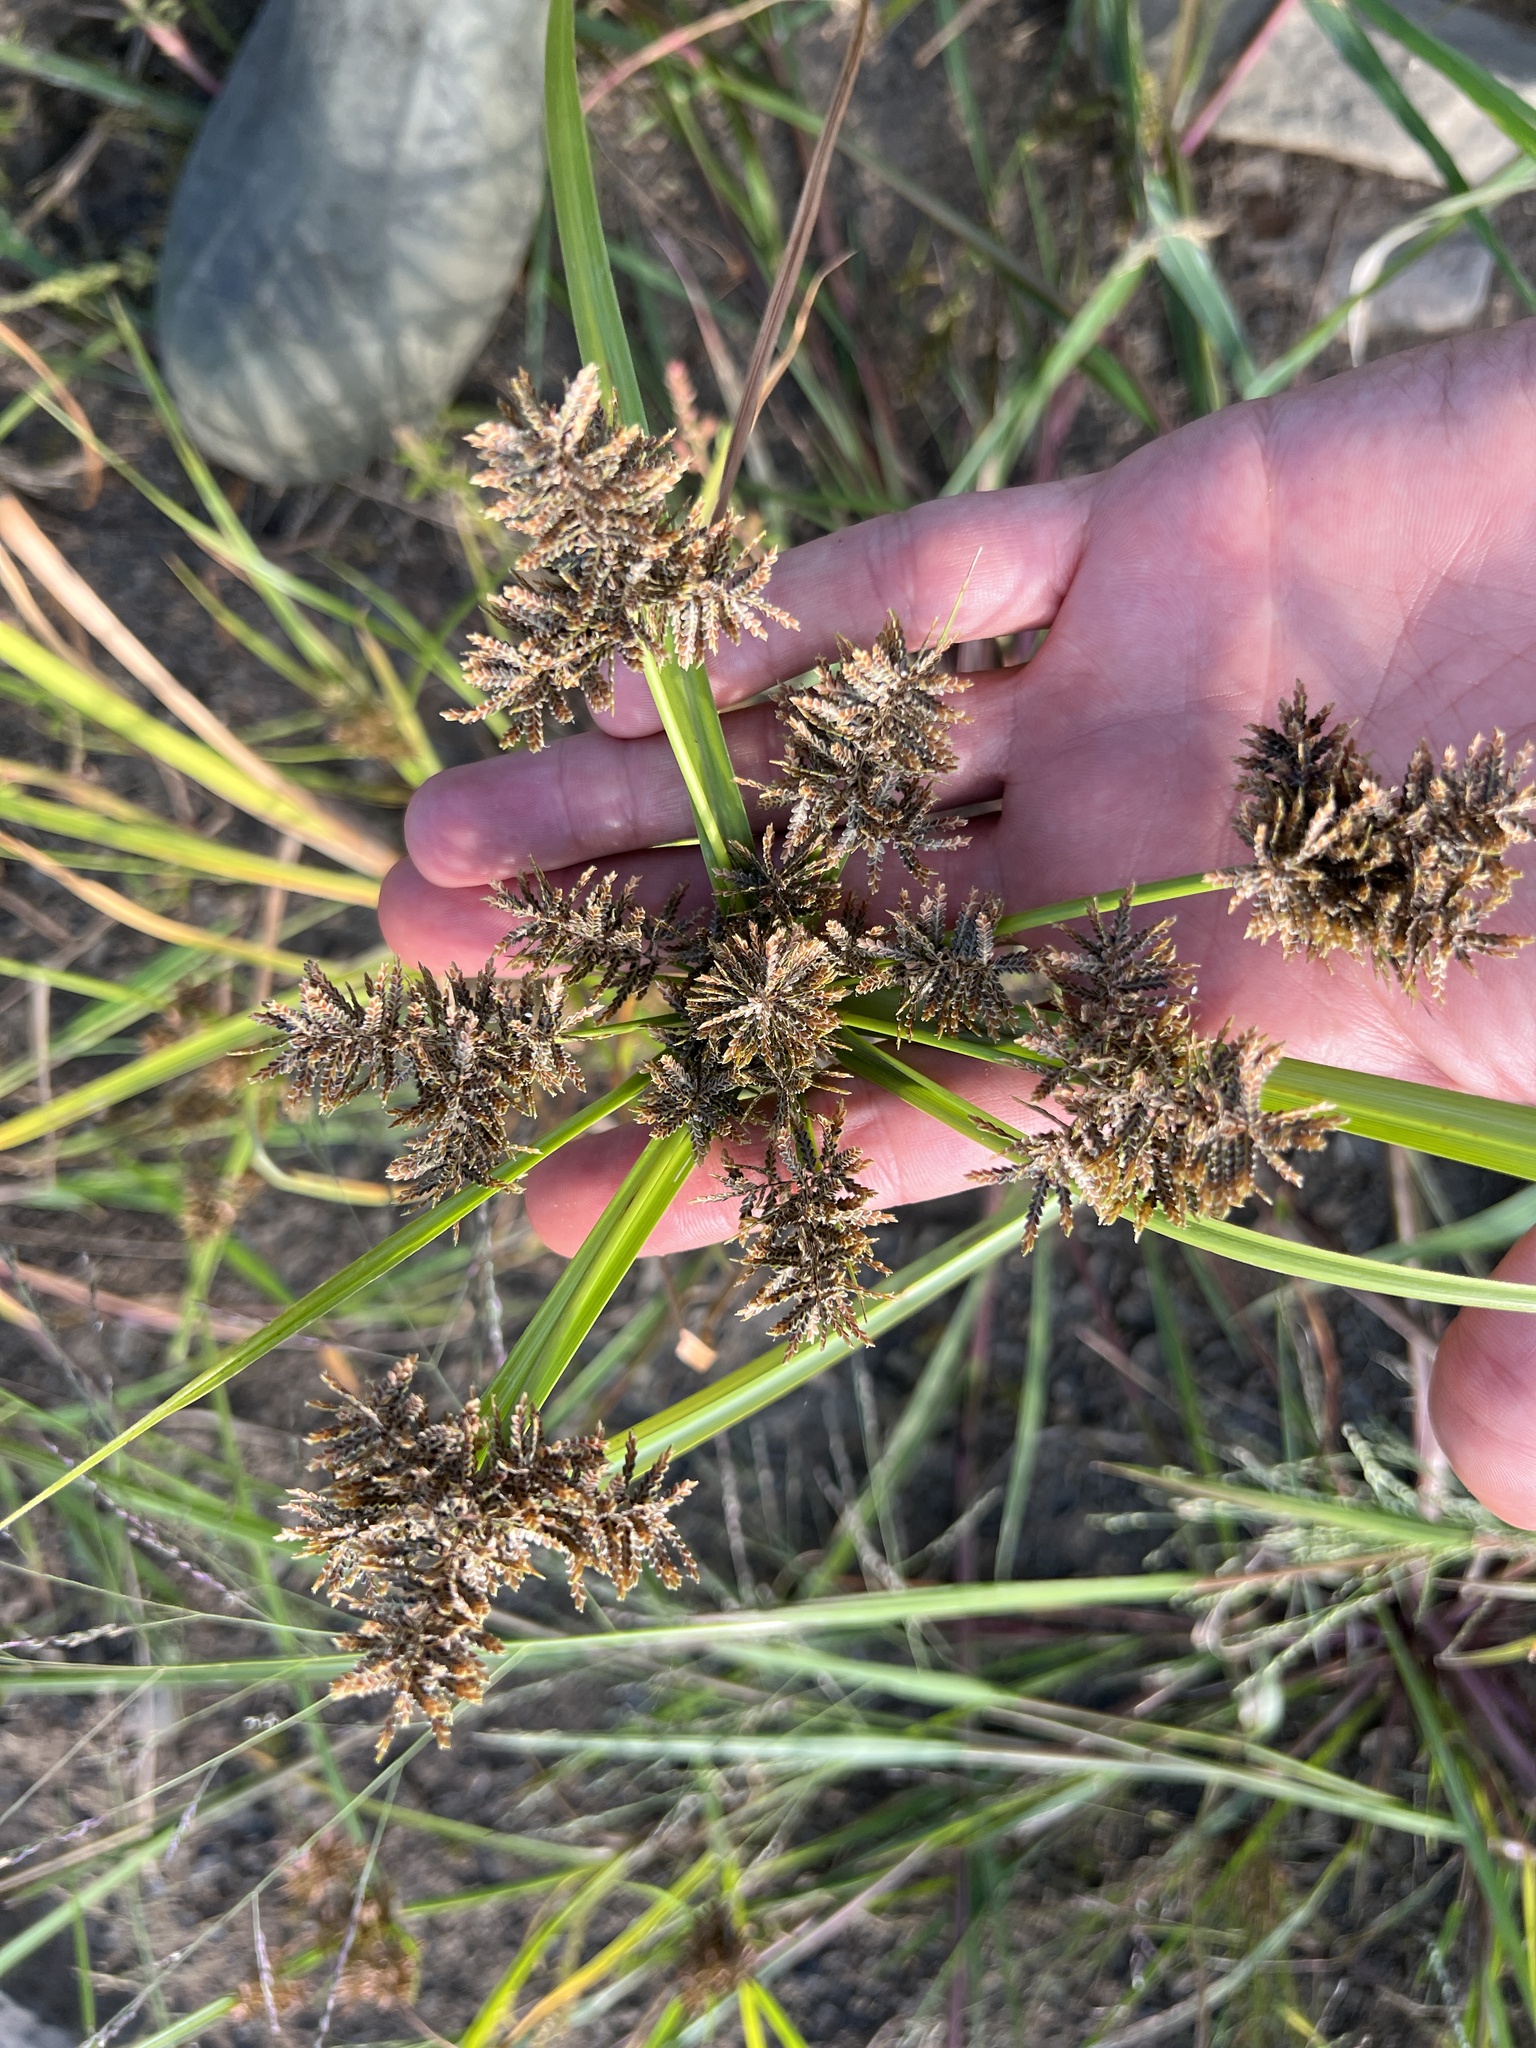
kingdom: Plantae
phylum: Tracheophyta
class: Liliopsida
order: Poales
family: Cyperaceae
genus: Cyperus
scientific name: Cyperus flavicomus
